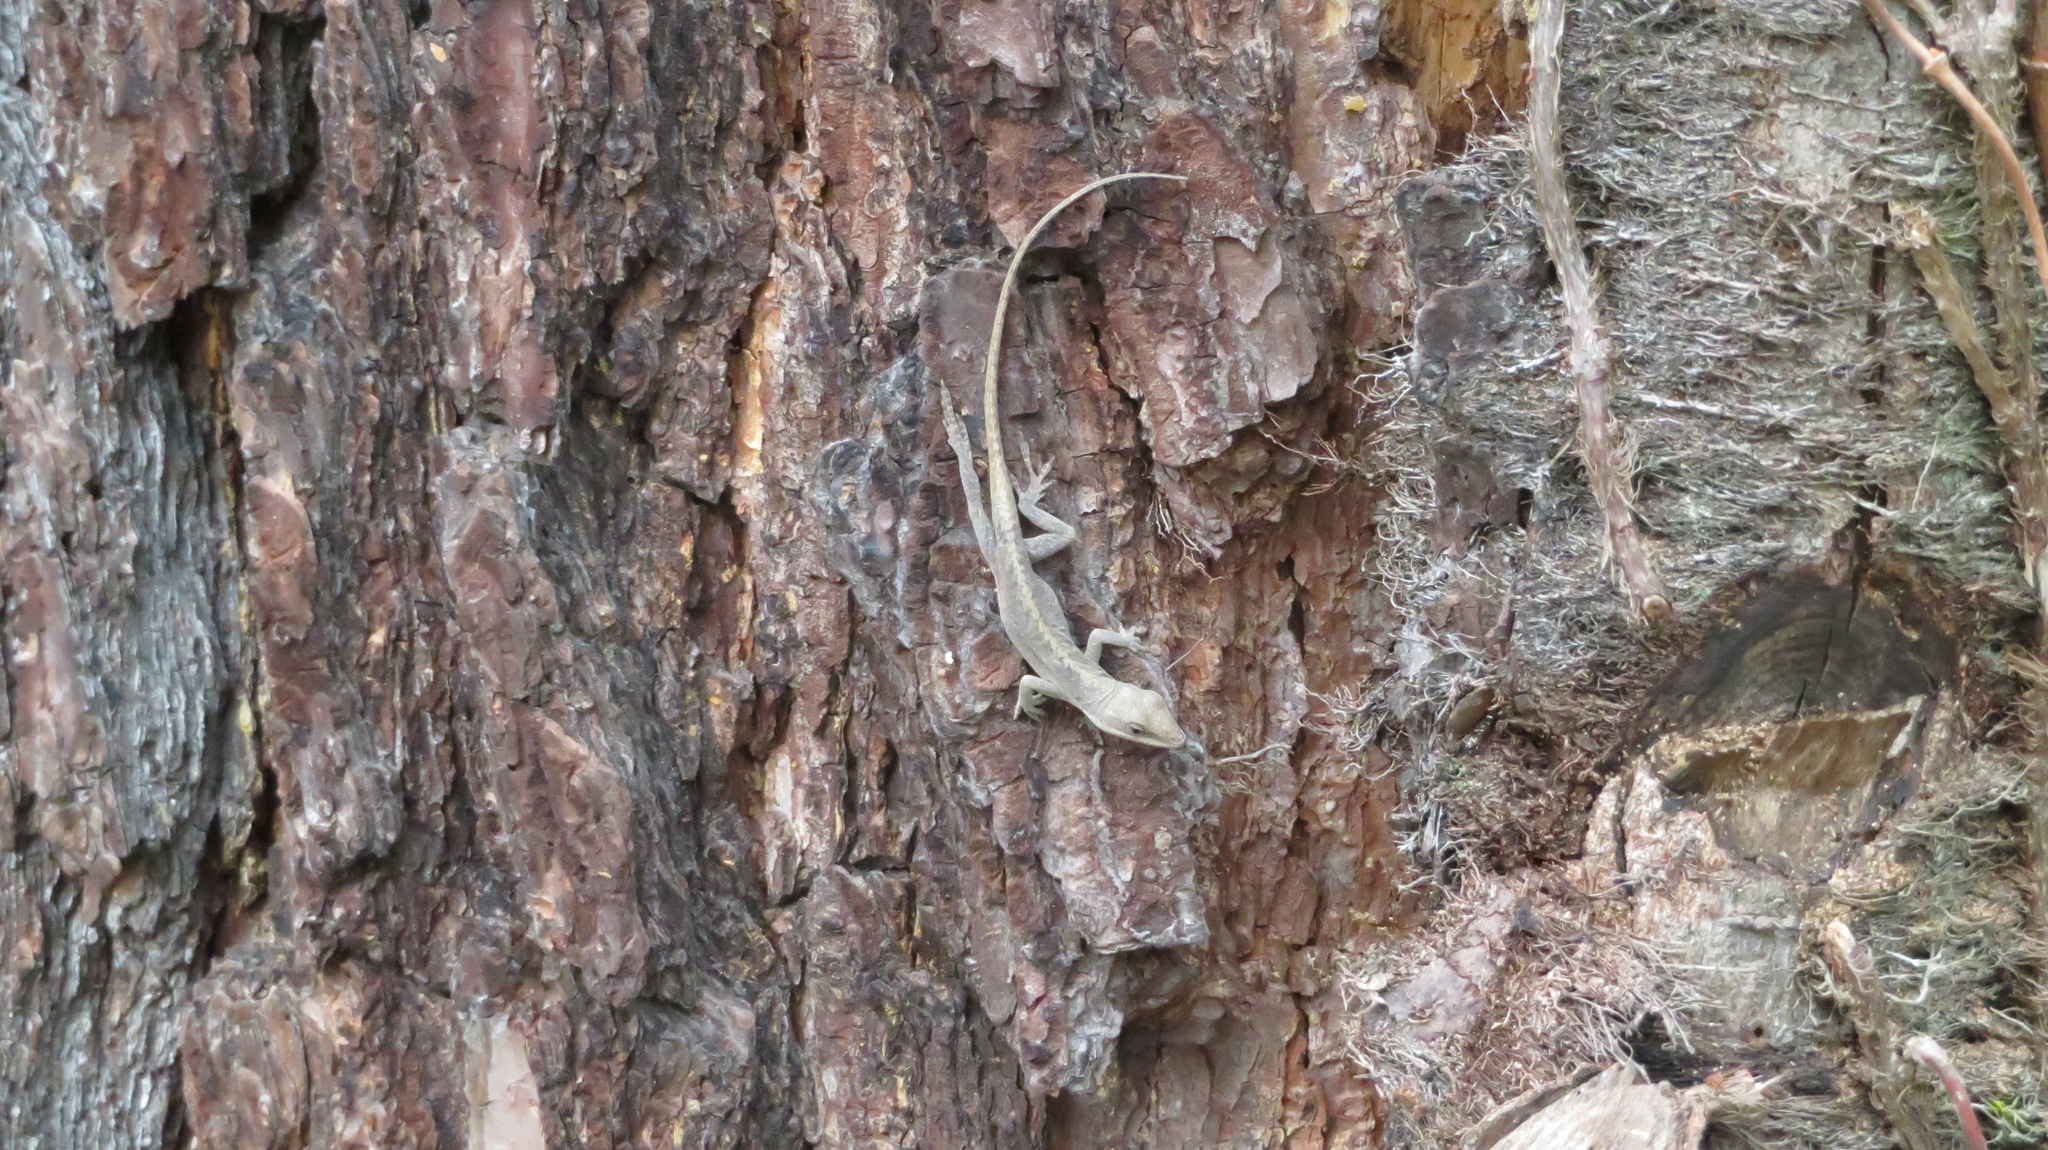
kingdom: Animalia
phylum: Chordata
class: Squamata
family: Dactyloidae
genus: Anolis
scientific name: Anolis carolinensis
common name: Green anole
